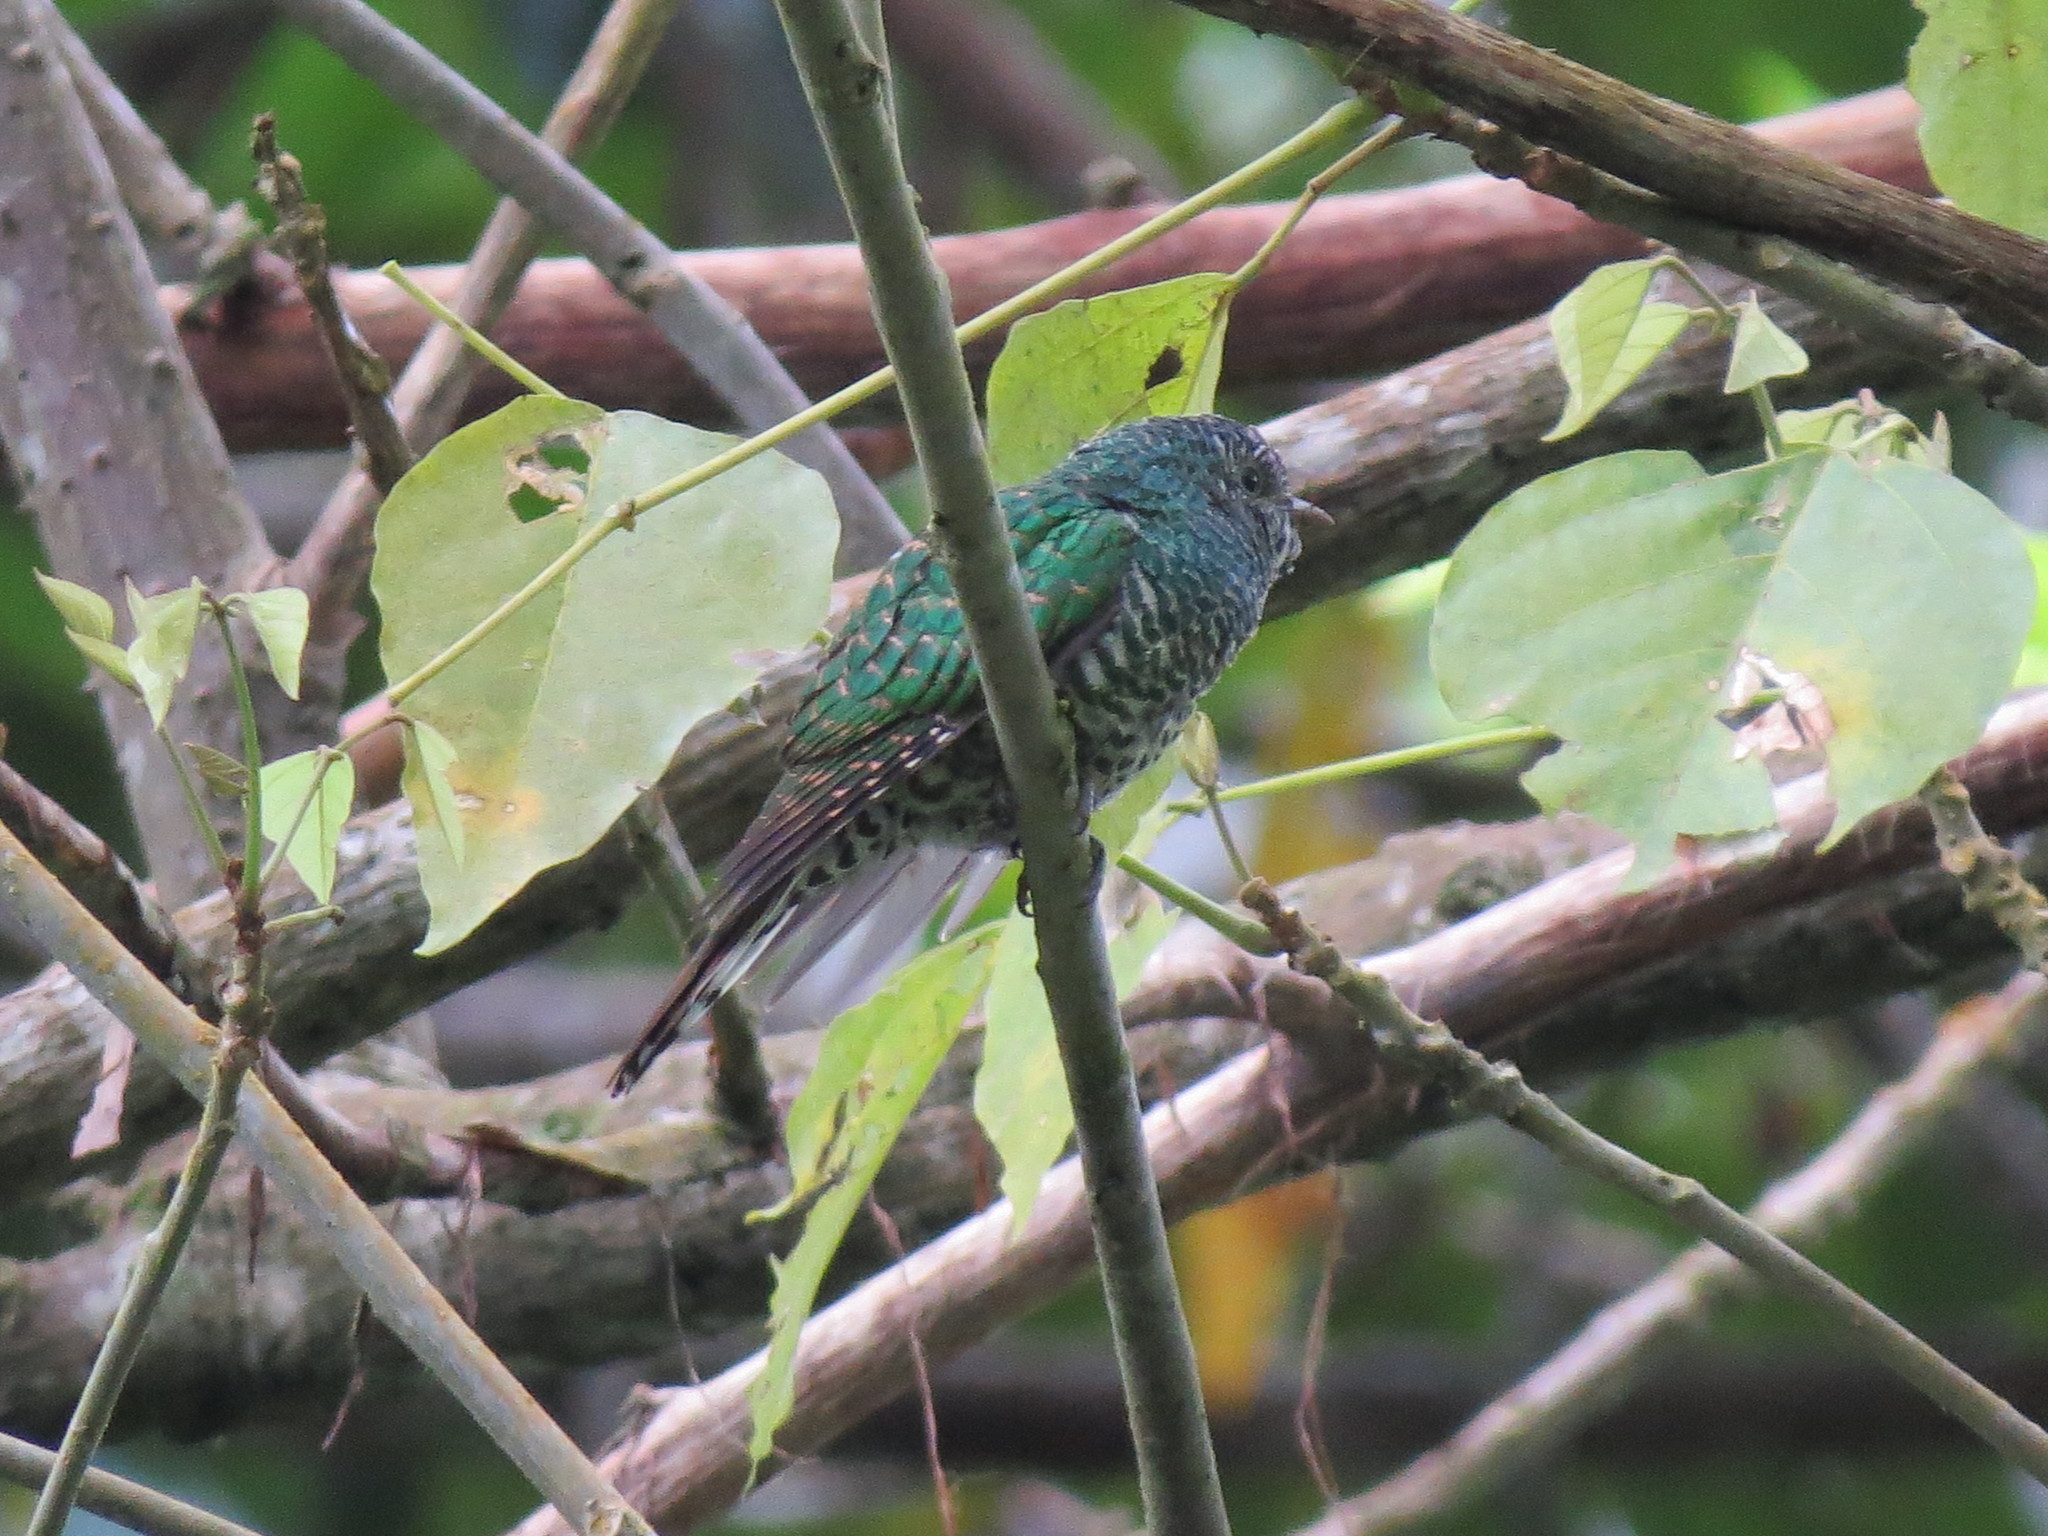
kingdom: Animalia
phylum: Chordata
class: Aves
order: Cuculiformes
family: Cuculidae
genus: Chrysococcyx
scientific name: Chrysococcyx cupreus
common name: African emerald cuckoo
